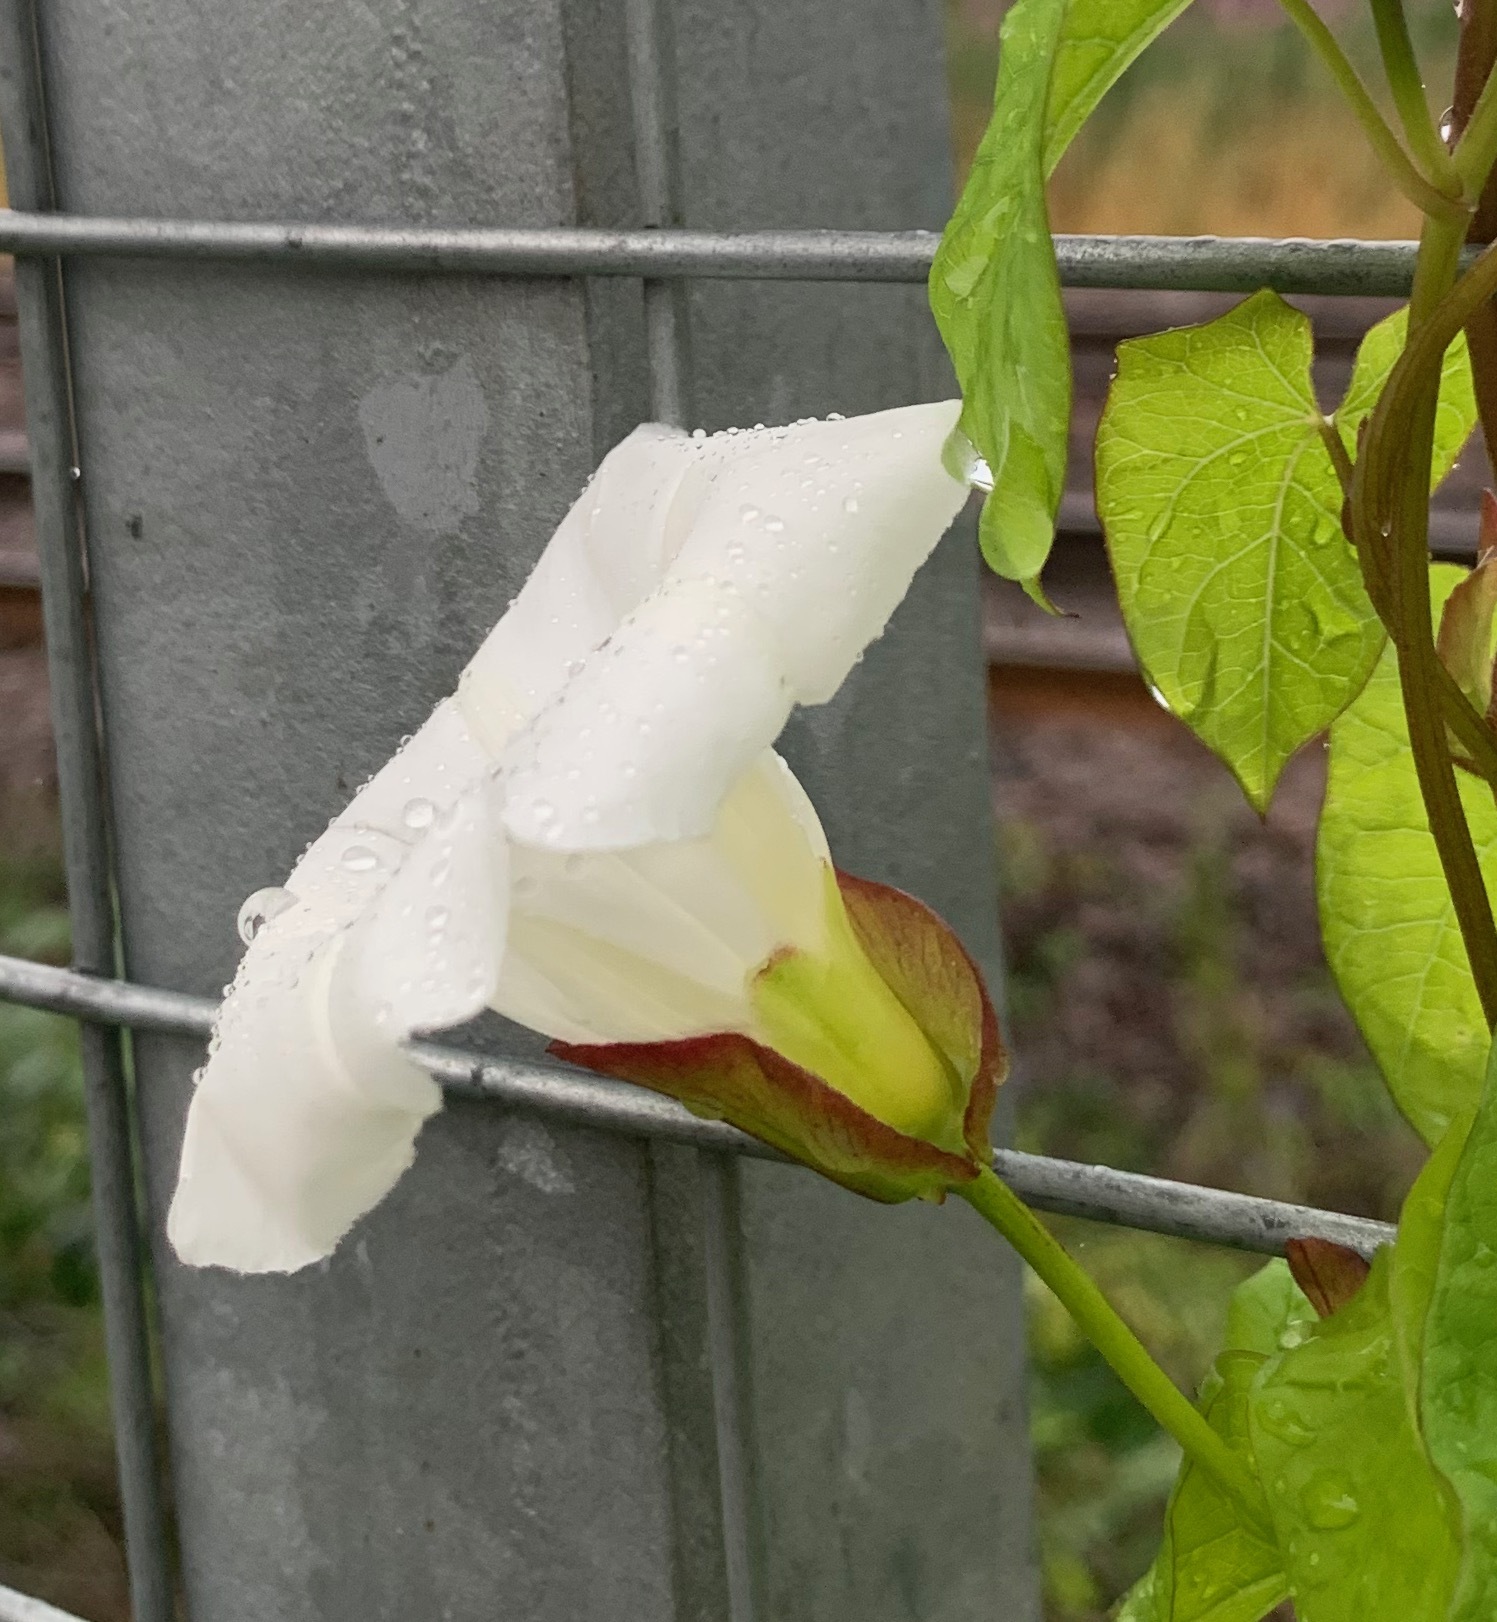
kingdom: Plantae
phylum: Tracheophyta
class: Magnoliopsida
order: Solanales
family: Convolvulaceae
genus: Calystegia
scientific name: Calystegia sepium
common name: Hedge bindweed
